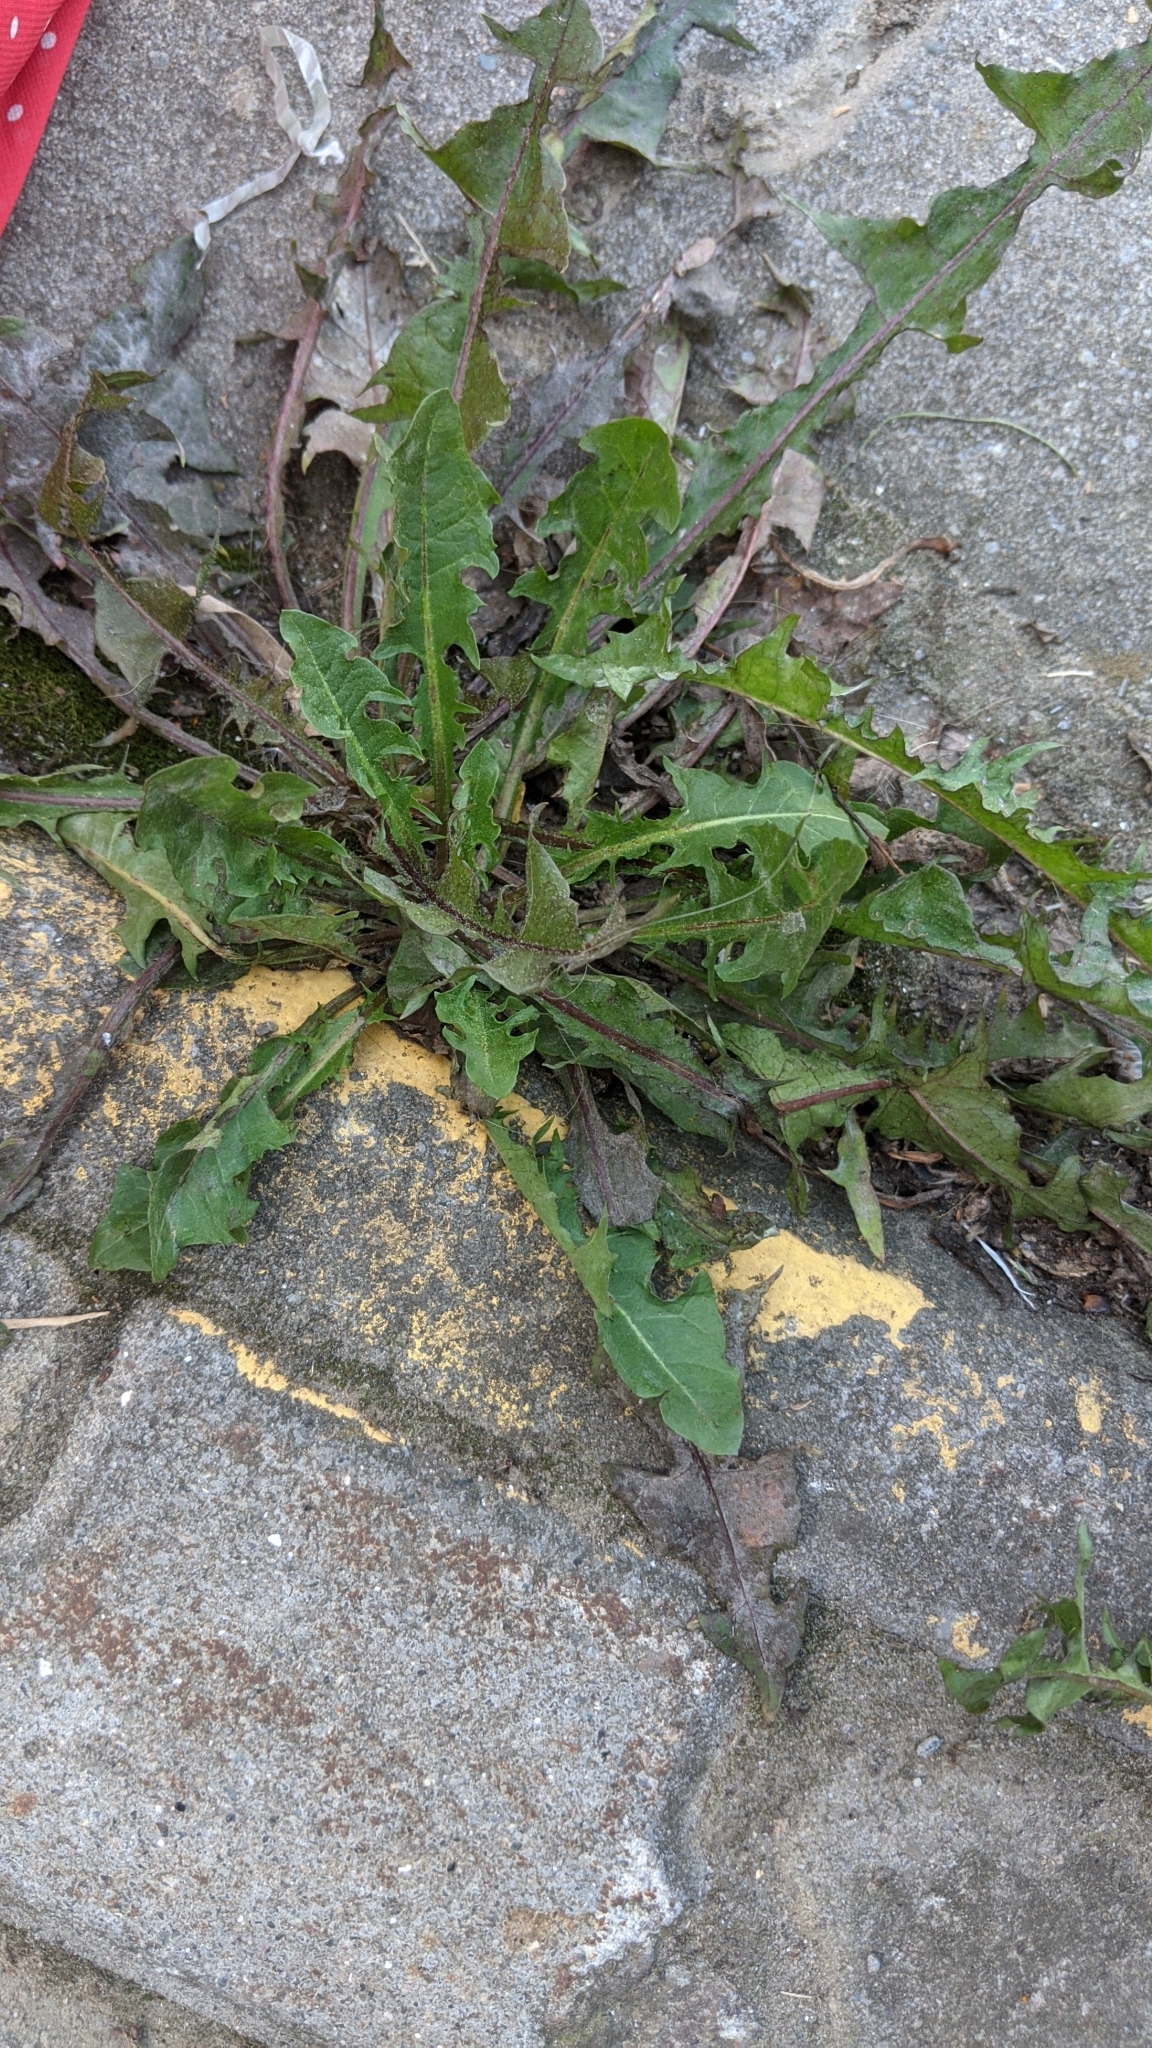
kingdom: Plantae
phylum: Tracheophyta
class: Magnoliopsida
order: Asterales
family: Asteraceae
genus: Taraxacum
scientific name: Taraxacum officinale
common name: Common dandelion
